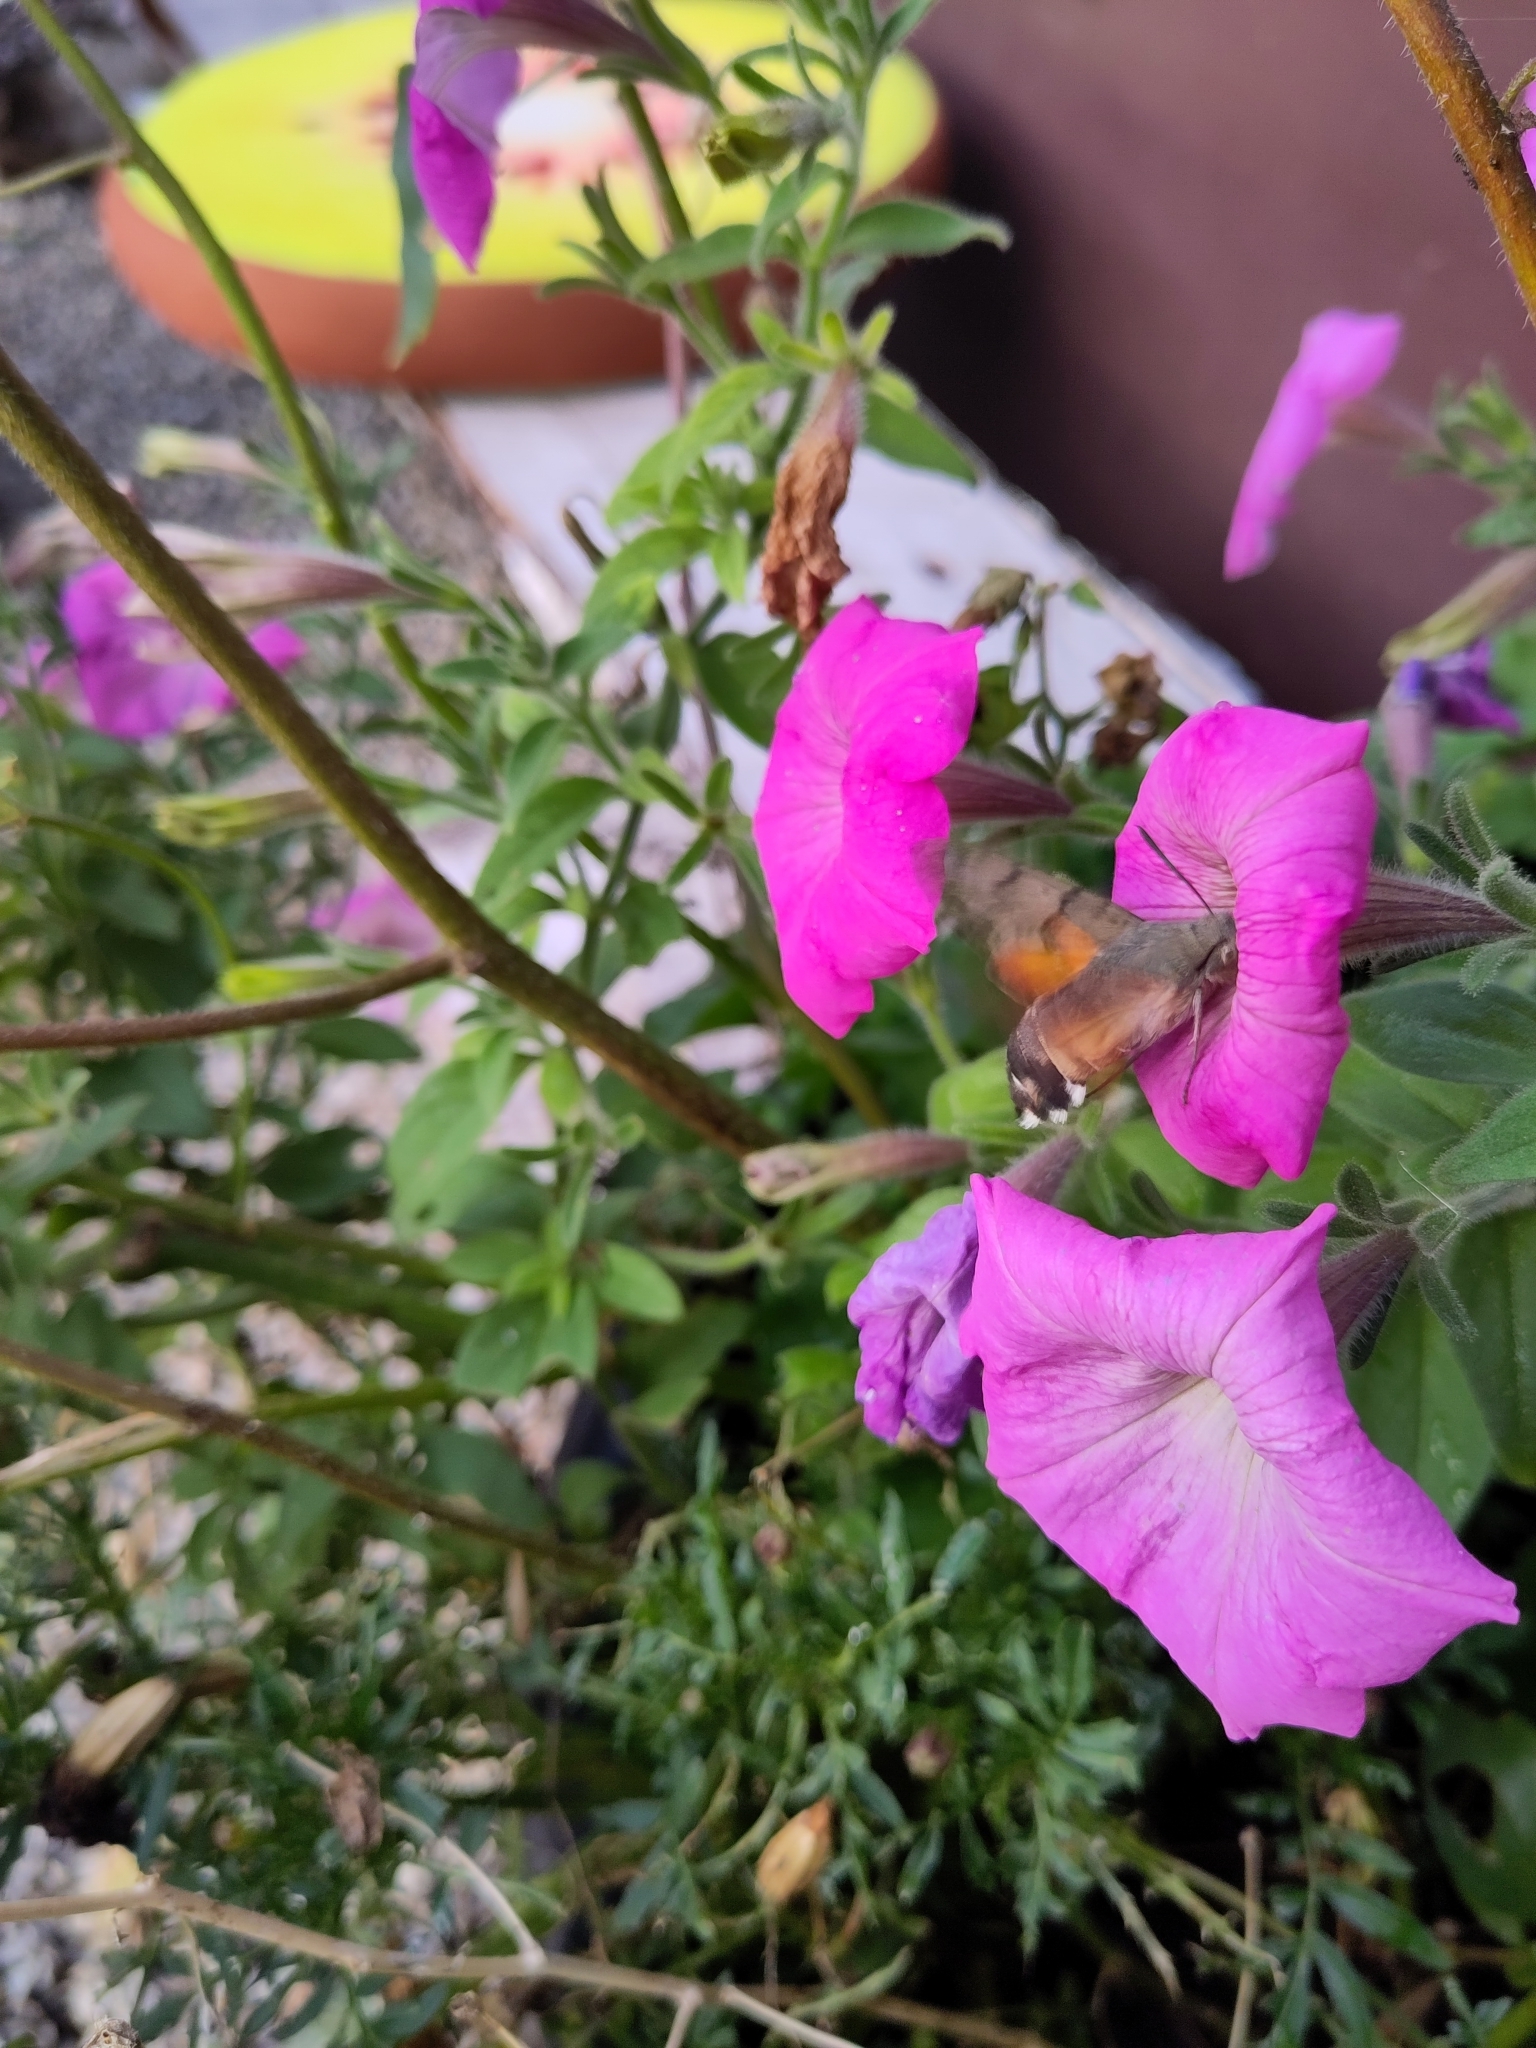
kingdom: Animalia
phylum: Arthropoda
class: Insecta
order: Lepidoptera
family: Sphingidae
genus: Macroglossum
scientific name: Macroglossum stellatarum
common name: Humming-bird hawk-moth
